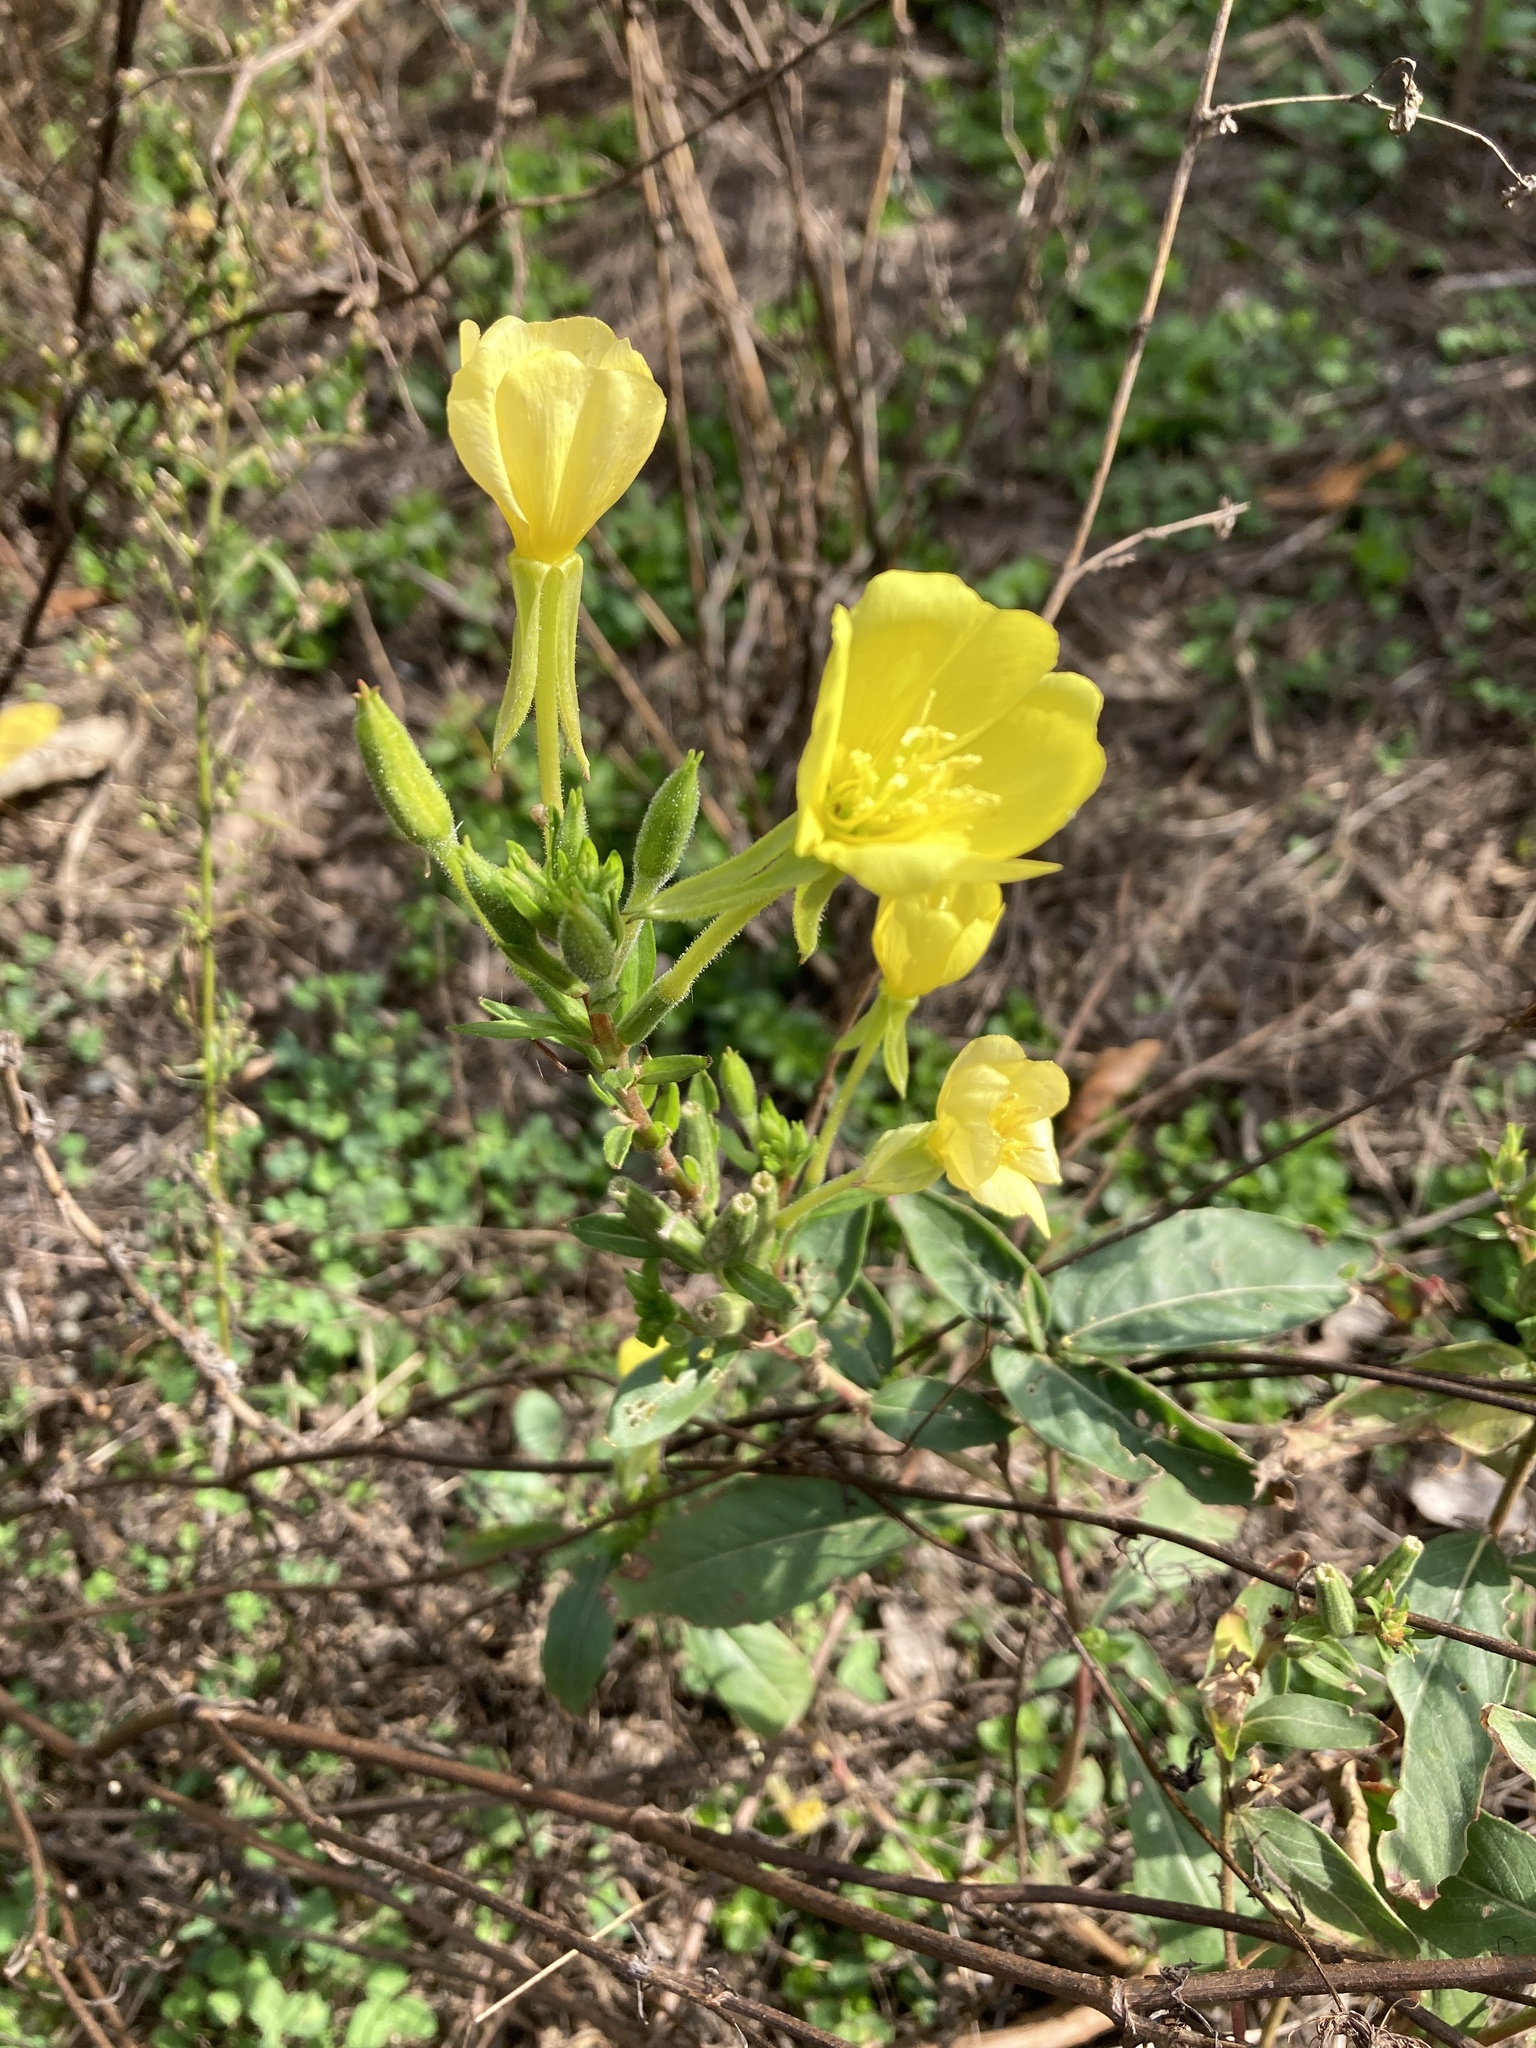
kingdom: Plantae
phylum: Tracheophyta
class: Magnoliopsida
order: Myrtales
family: Onagraceae
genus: Oenothera
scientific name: Oenothera biennis
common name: Common evening-primrose
